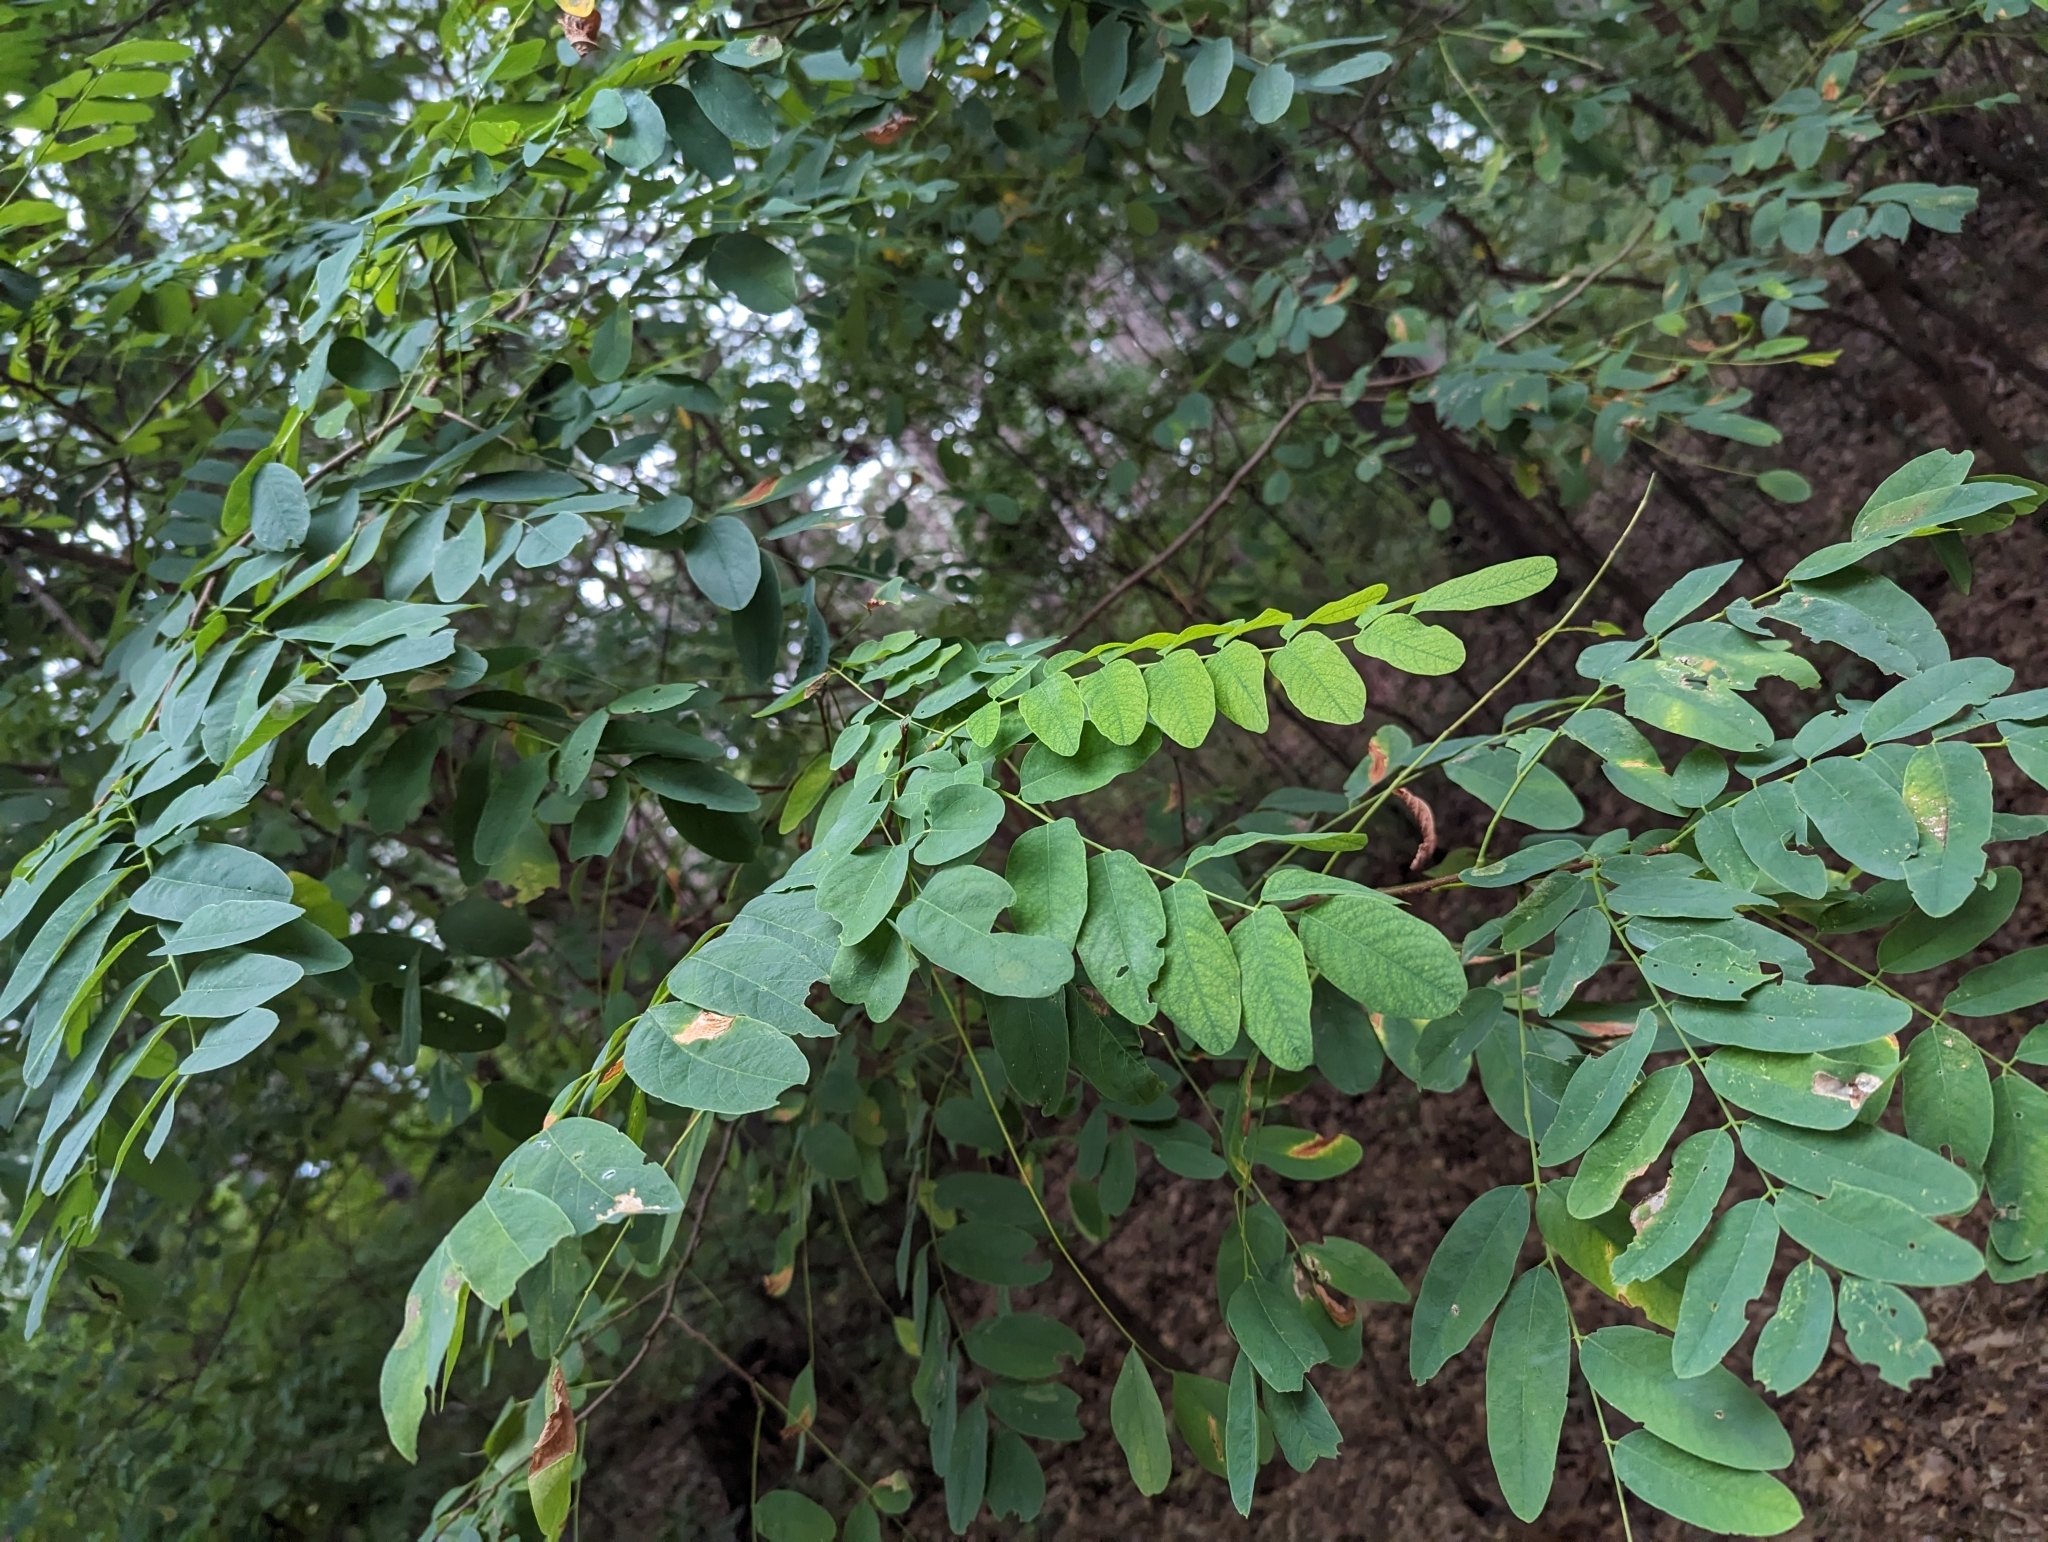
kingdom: Plantae
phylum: Tracheophyta
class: Magnoliopsida
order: Fabales
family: Fabaceae
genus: Robinia
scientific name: Robinia pseudoacacia
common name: Black locust
